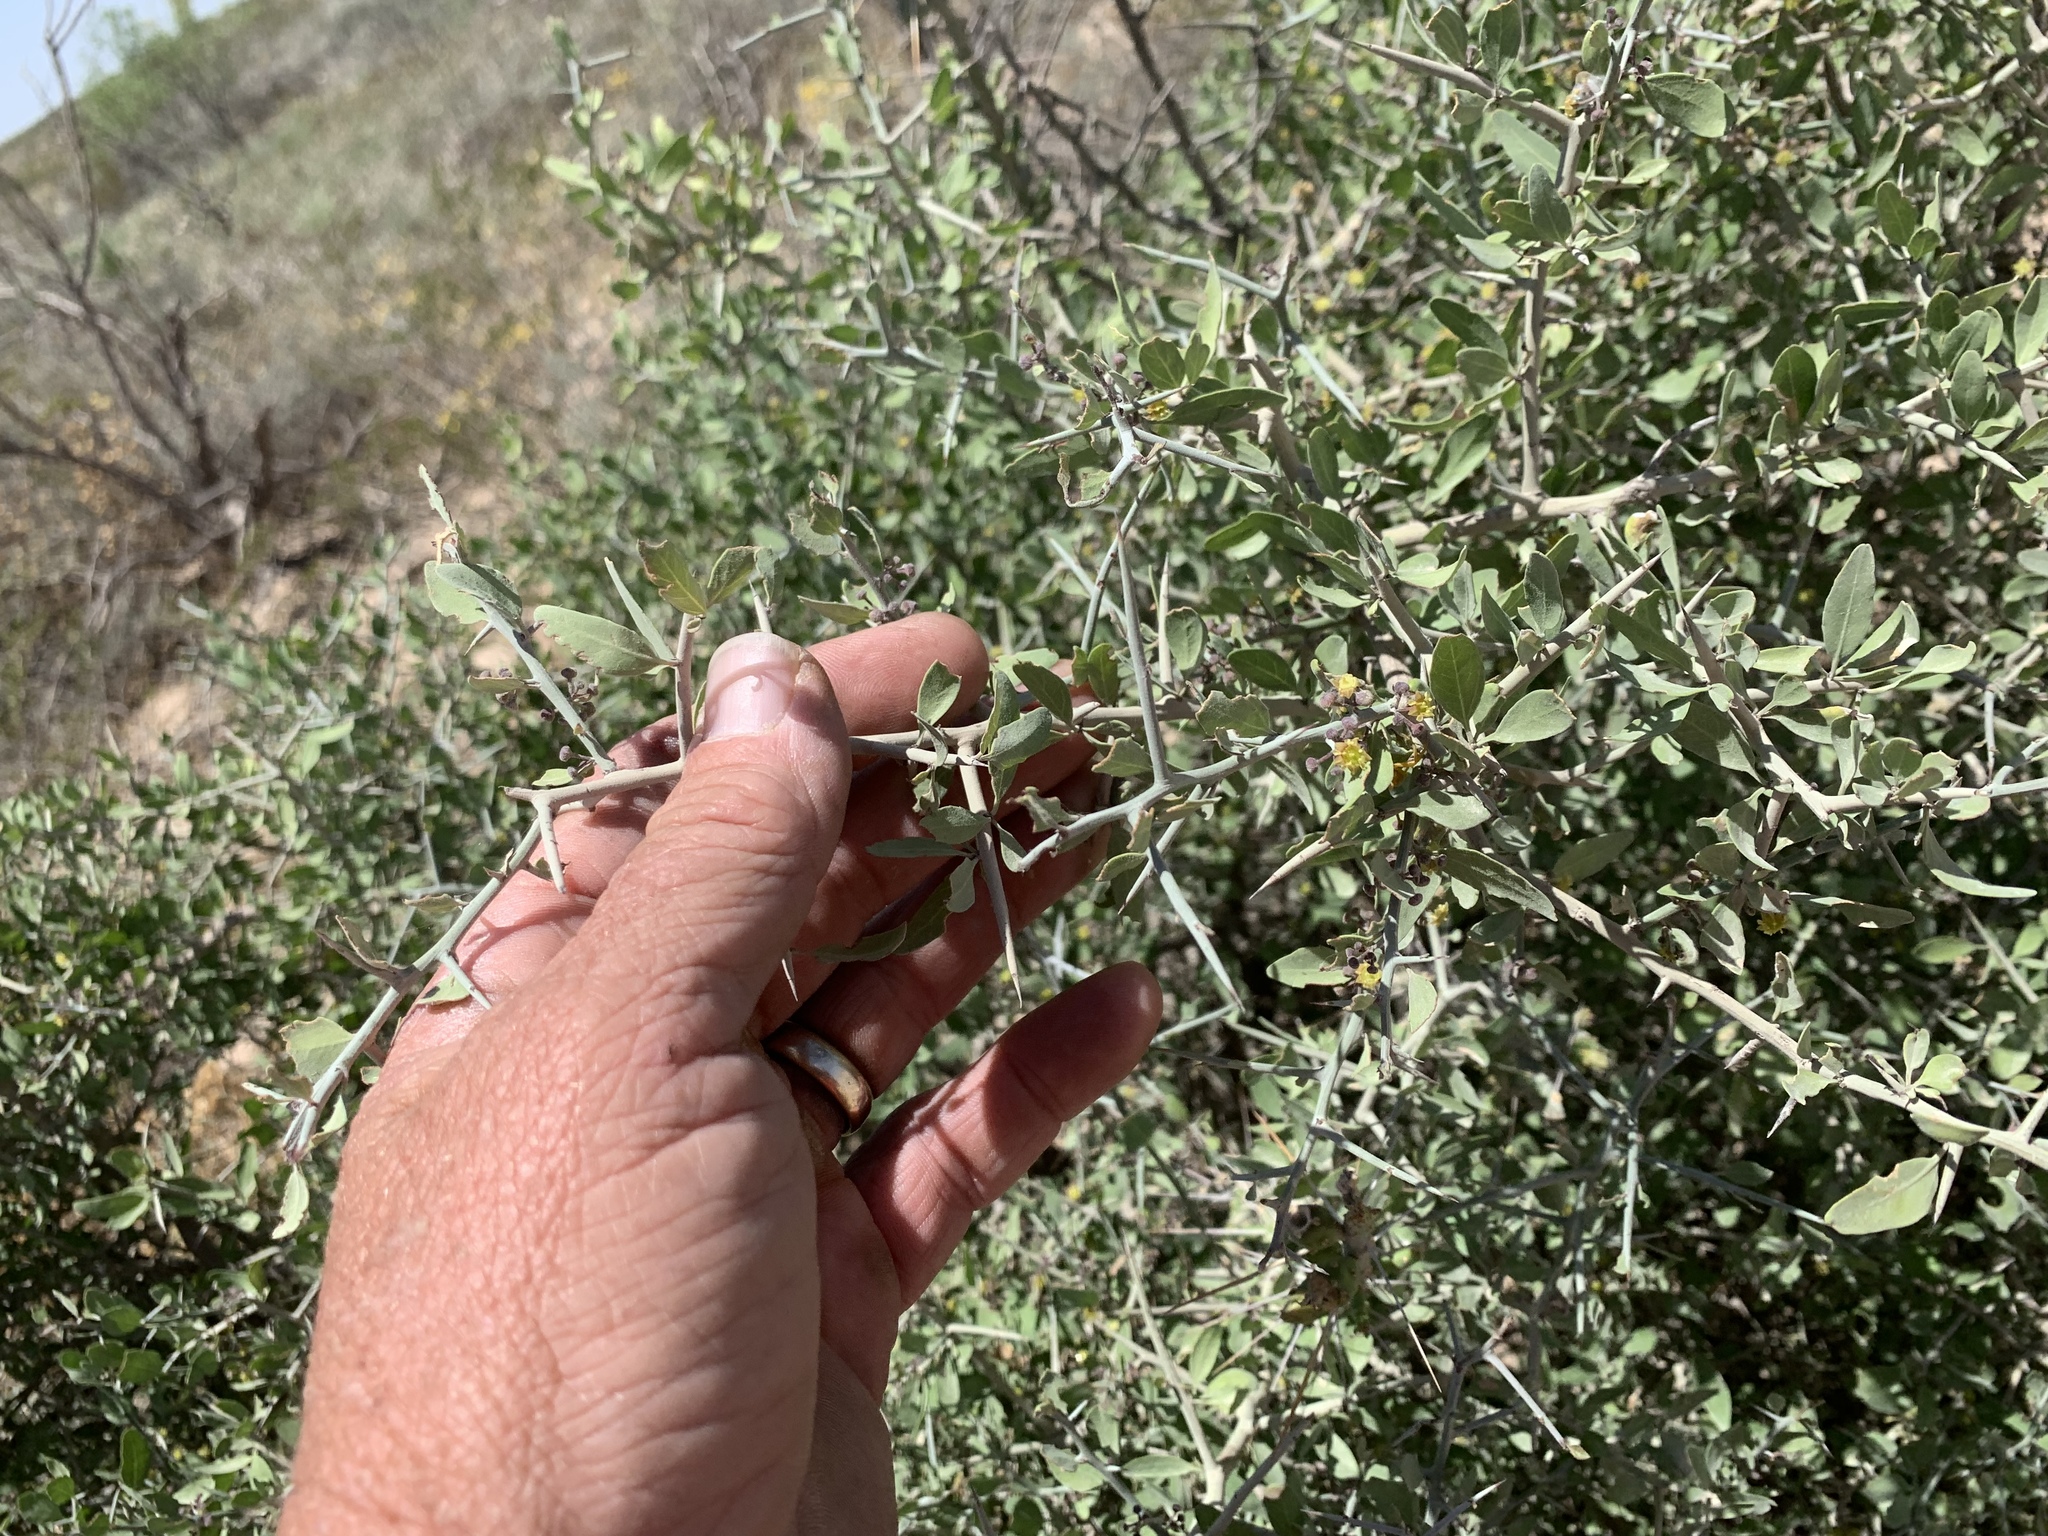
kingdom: Plantae
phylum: Tracheophyta
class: Magnoliopsida
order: Rosales
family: Rhamnaceae
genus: Sarcomphalus
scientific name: Sarcomphalus obtusifolius
